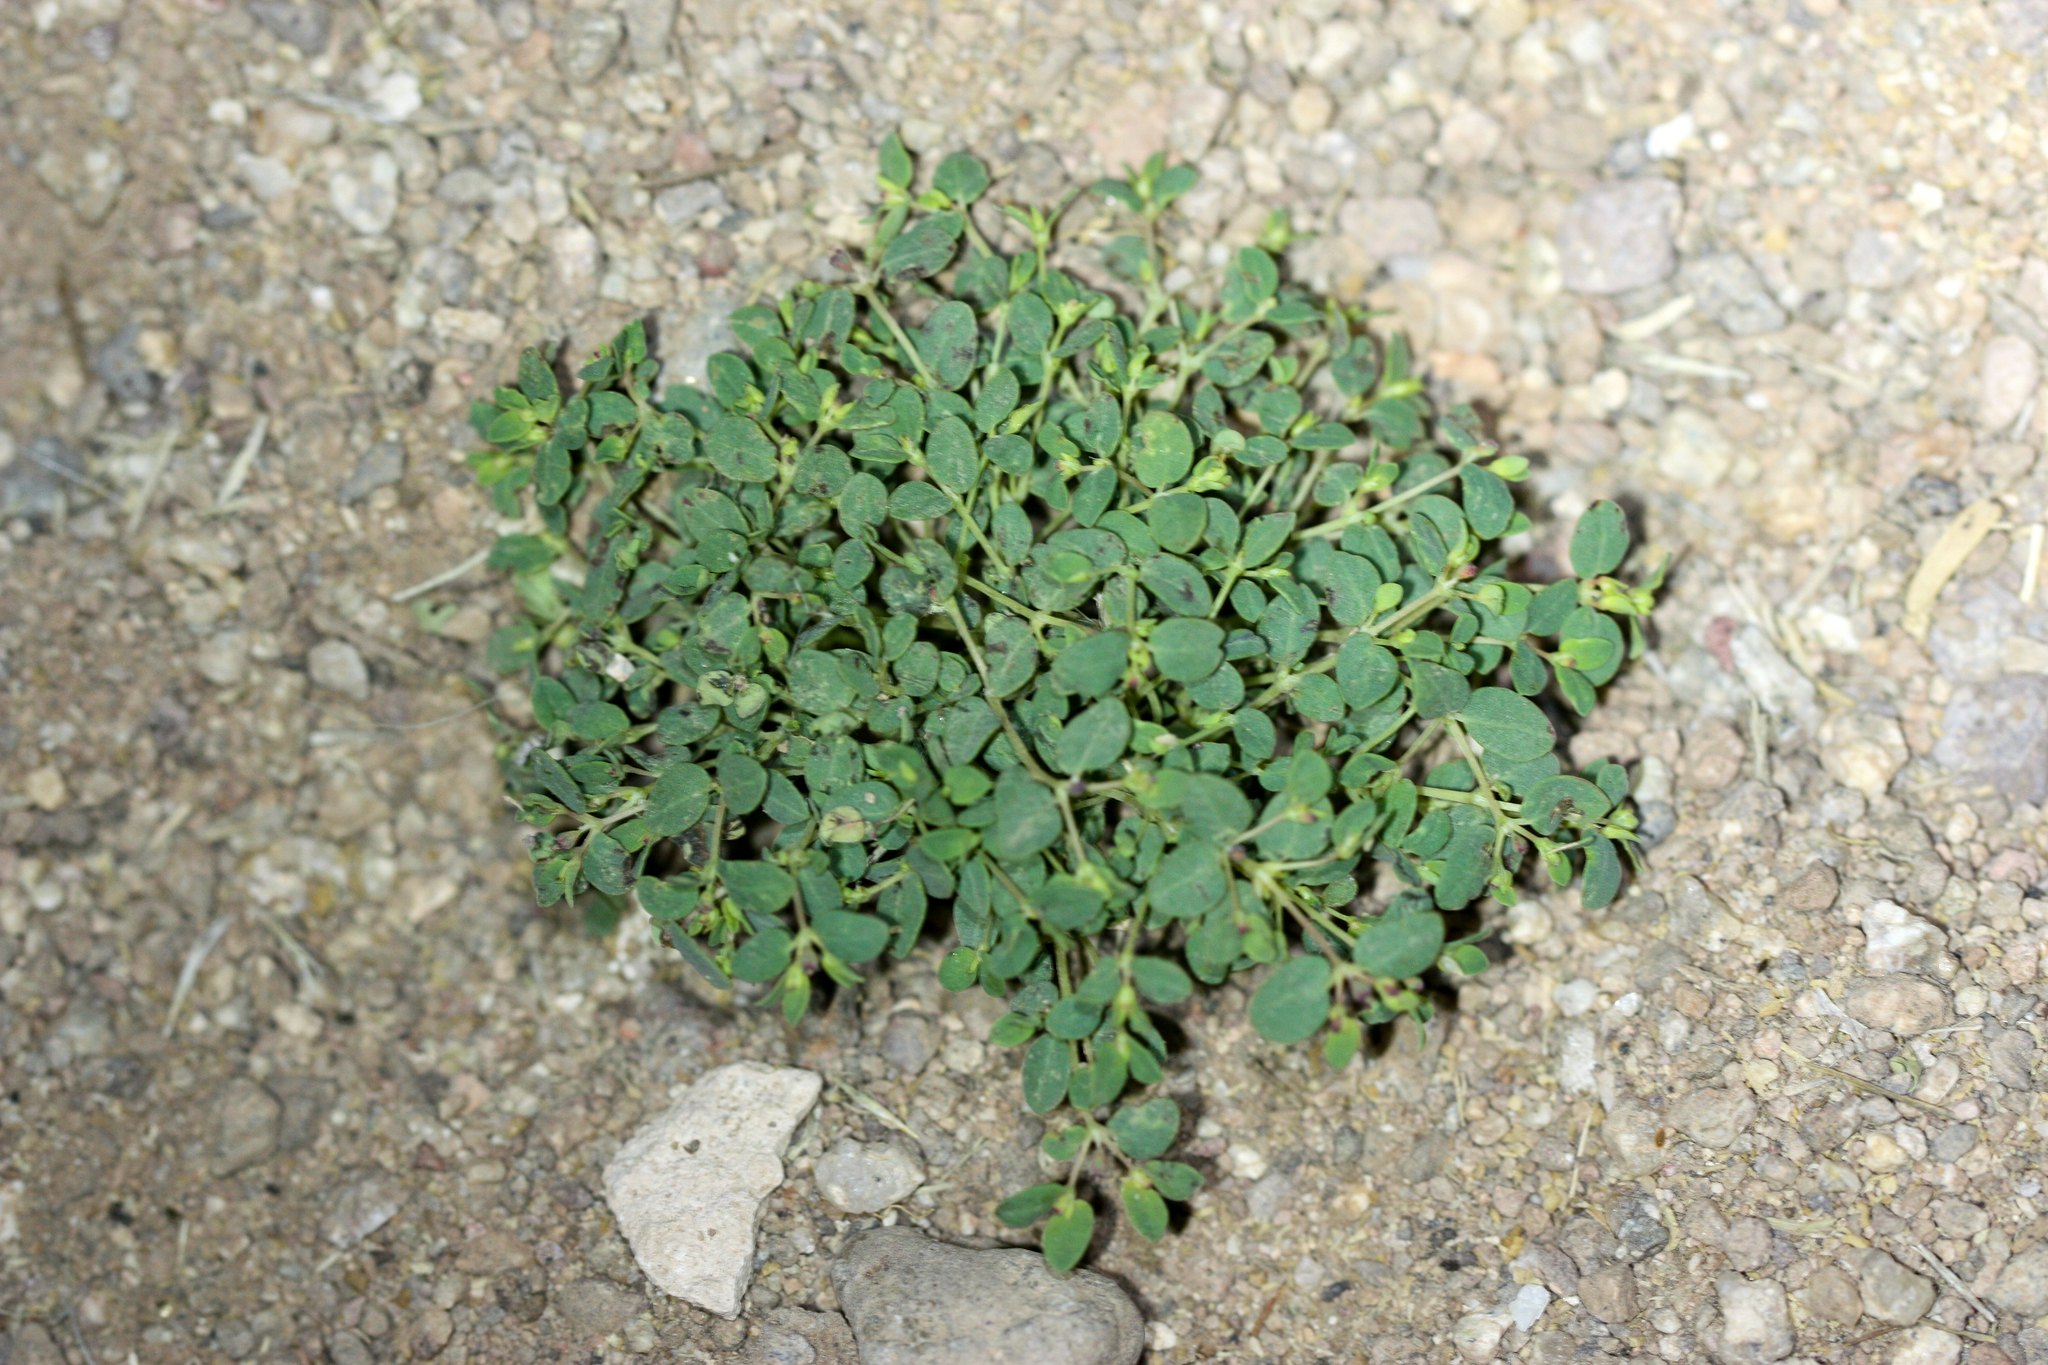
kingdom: Plantae
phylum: Tracheophyta
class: Magnoliopsida
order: Malpighiales
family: Euphorbiaceae
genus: Euphorbia
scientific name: Euphorbia polycarpa
